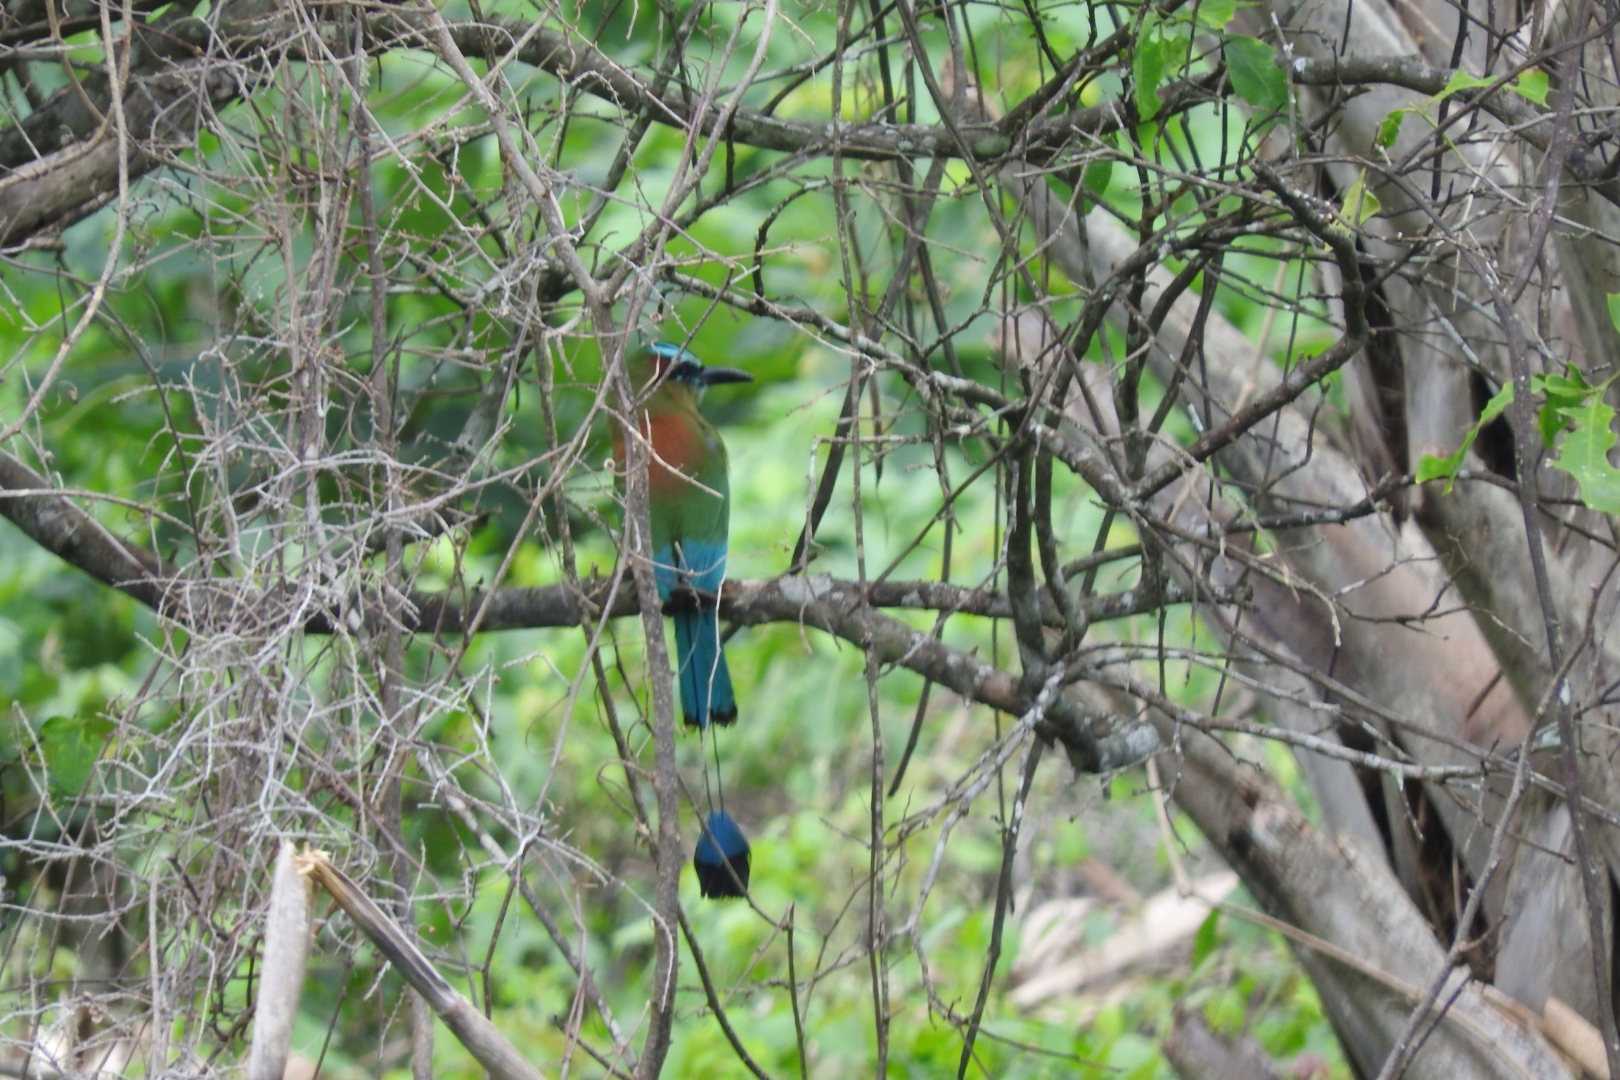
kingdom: Animalia
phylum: Chordata
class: Aves
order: Coraciiformes
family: Momotidae
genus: Eumomota
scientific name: Eumomota superciliosa
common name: Turquoise-browed motmot
